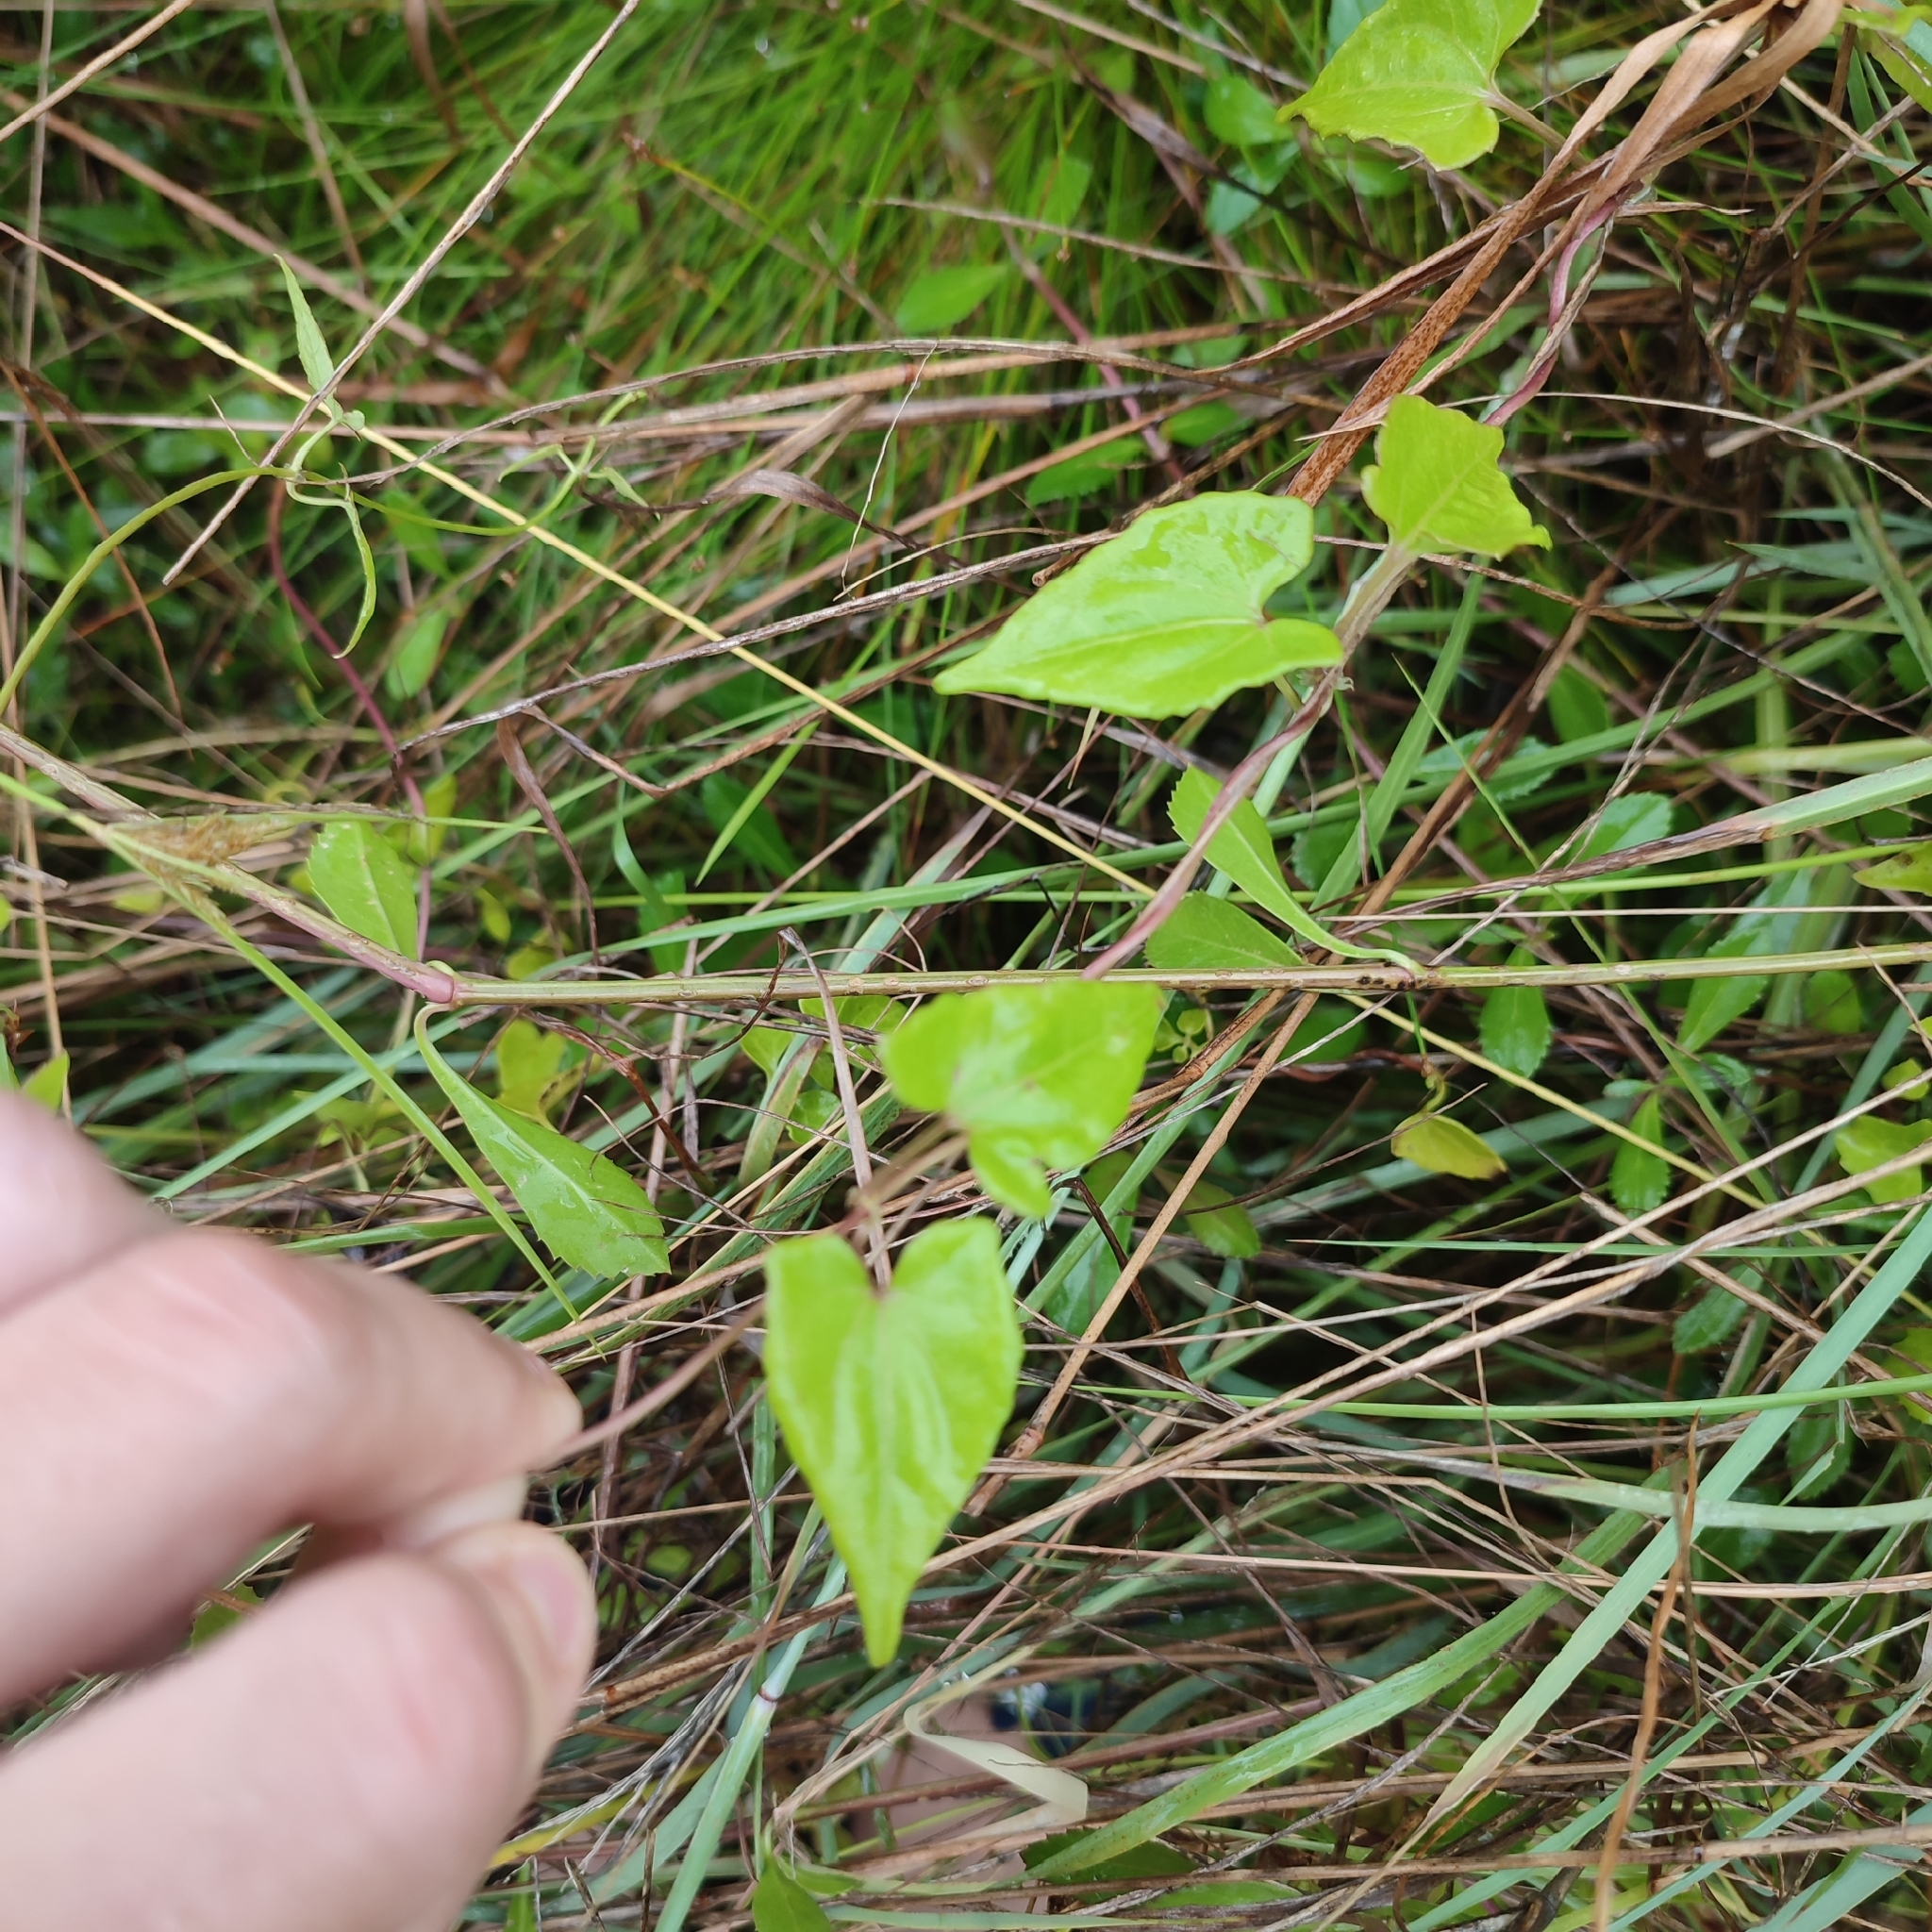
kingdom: Plantae
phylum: Tracheophyta
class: Magnoliopsida
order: Asterales
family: Asteraceae
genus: Mikania
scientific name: Mikania micrantha
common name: Mile-a-minute
